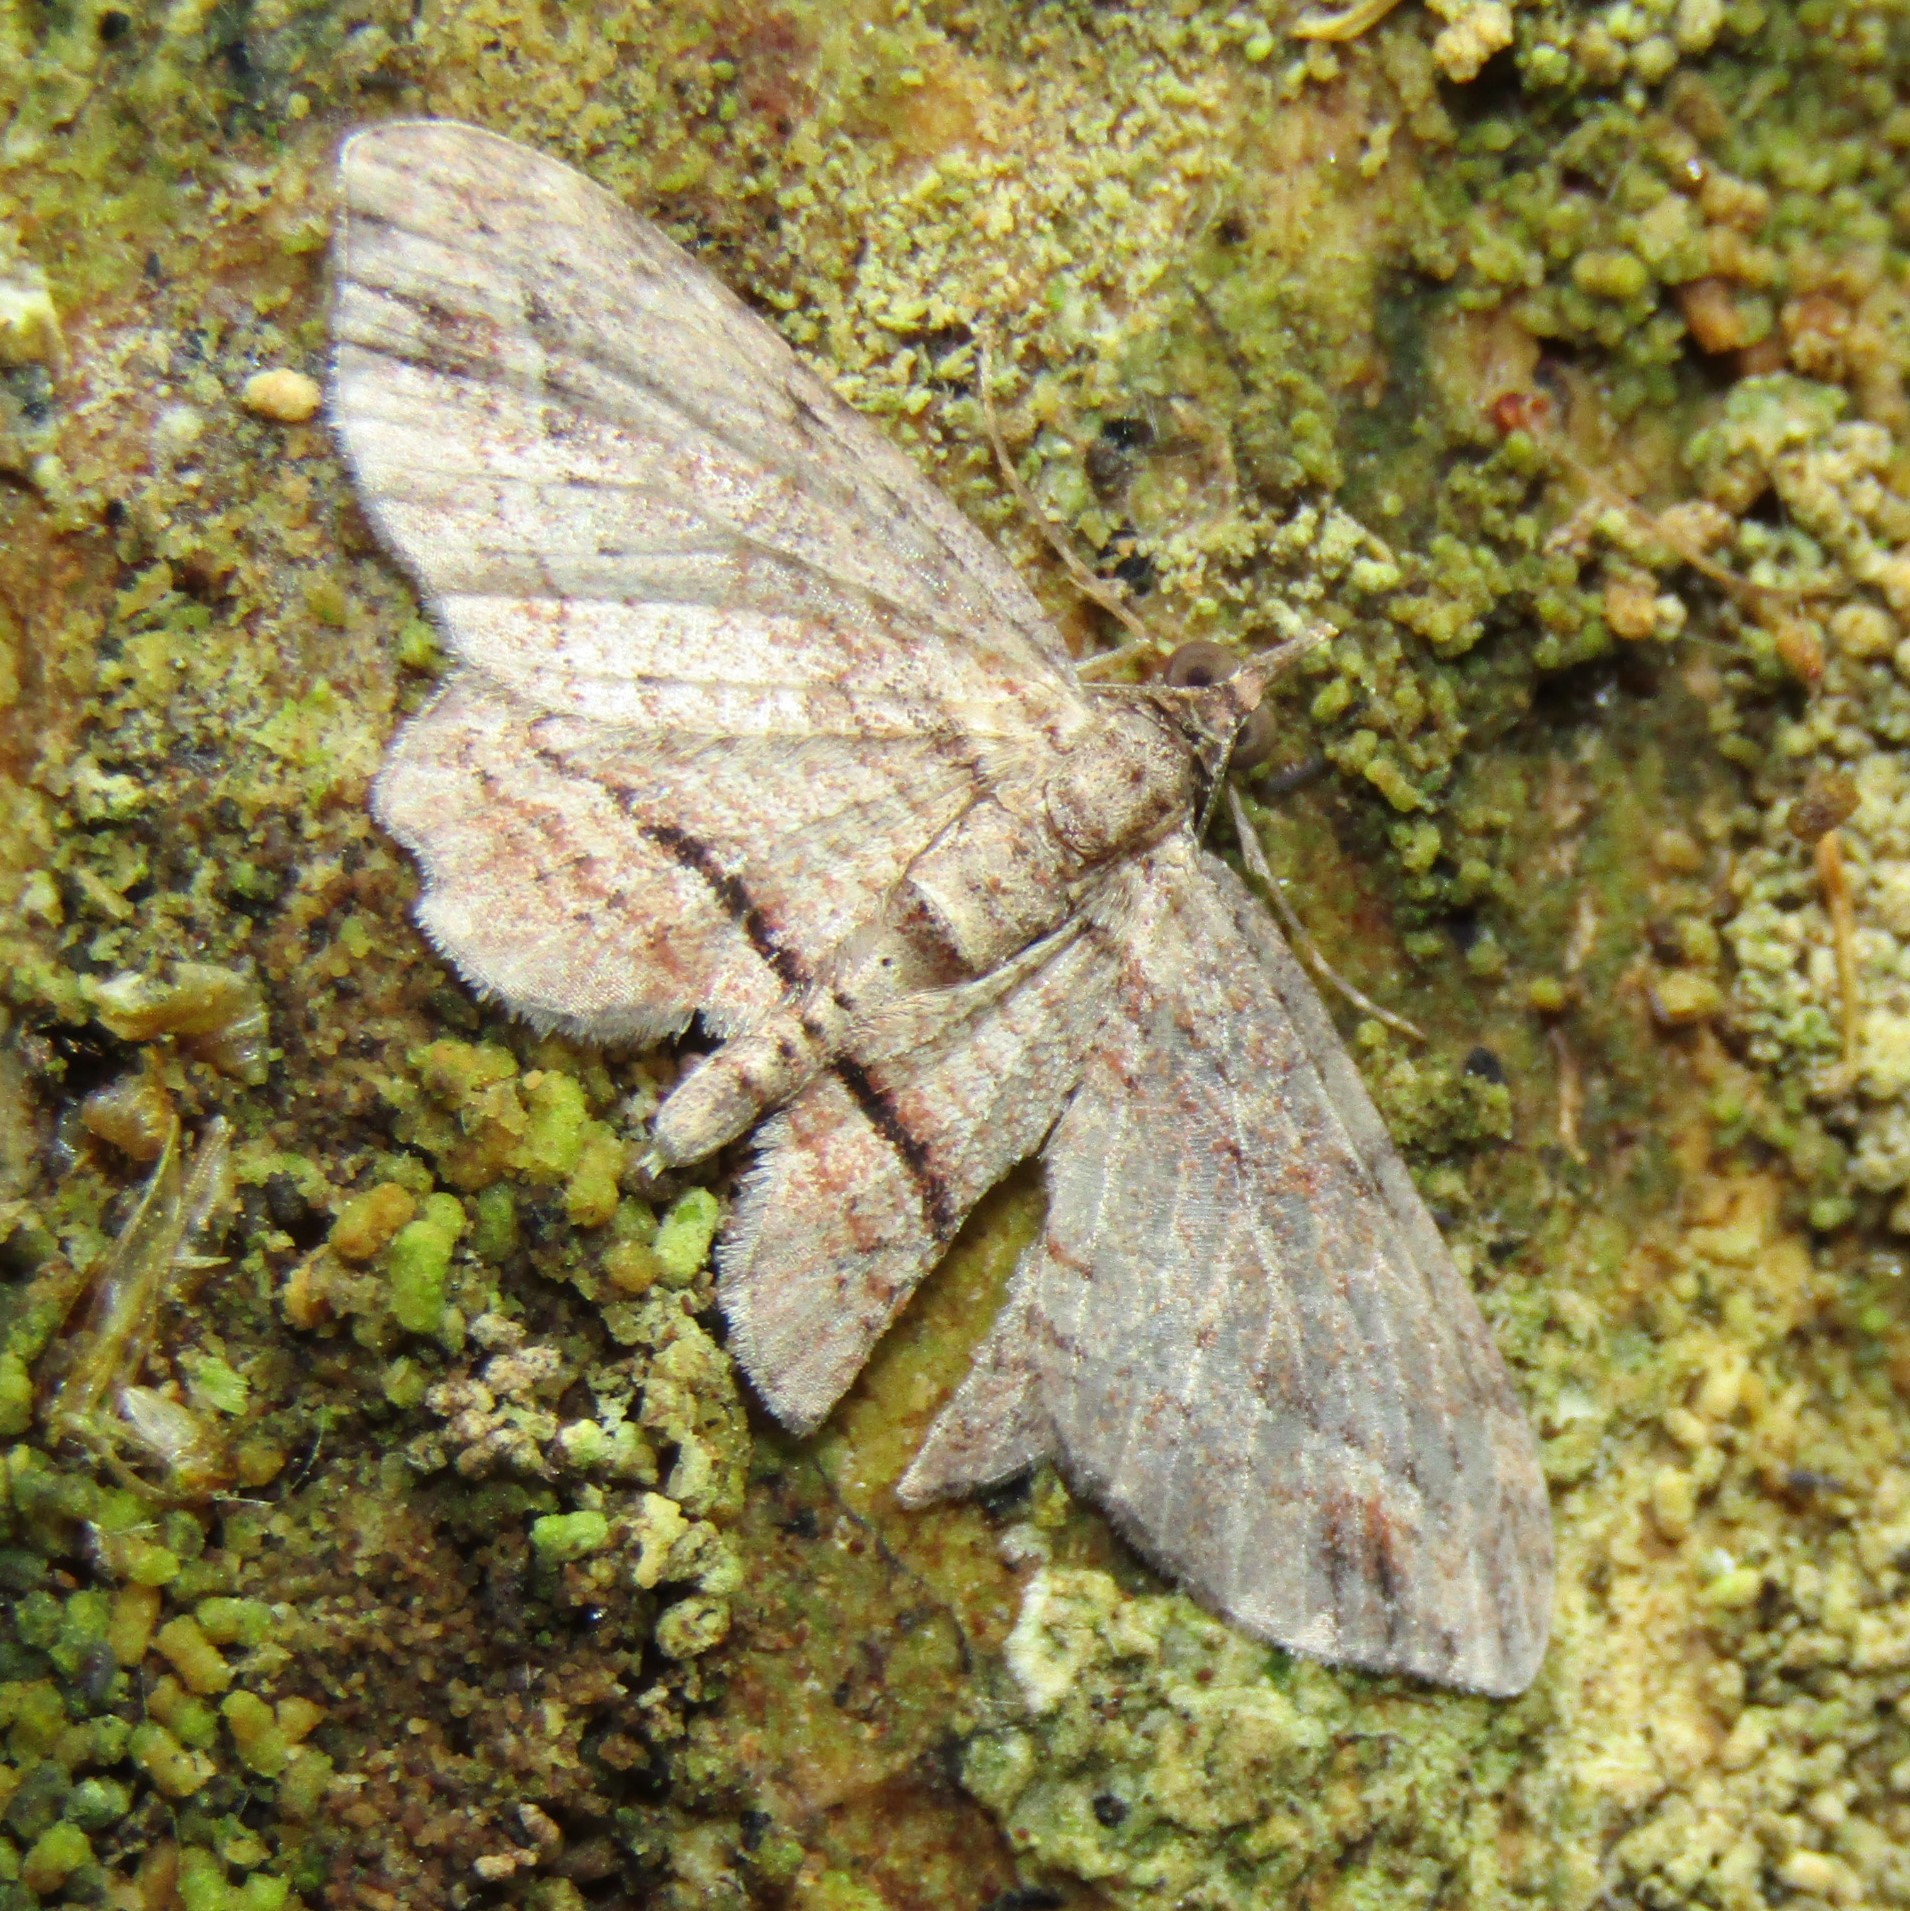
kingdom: Animalia
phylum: Arthropoda
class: Insecta
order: Lepidoptera
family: Geometridae
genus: Chloroclystis
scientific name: Chloroclystis filata
